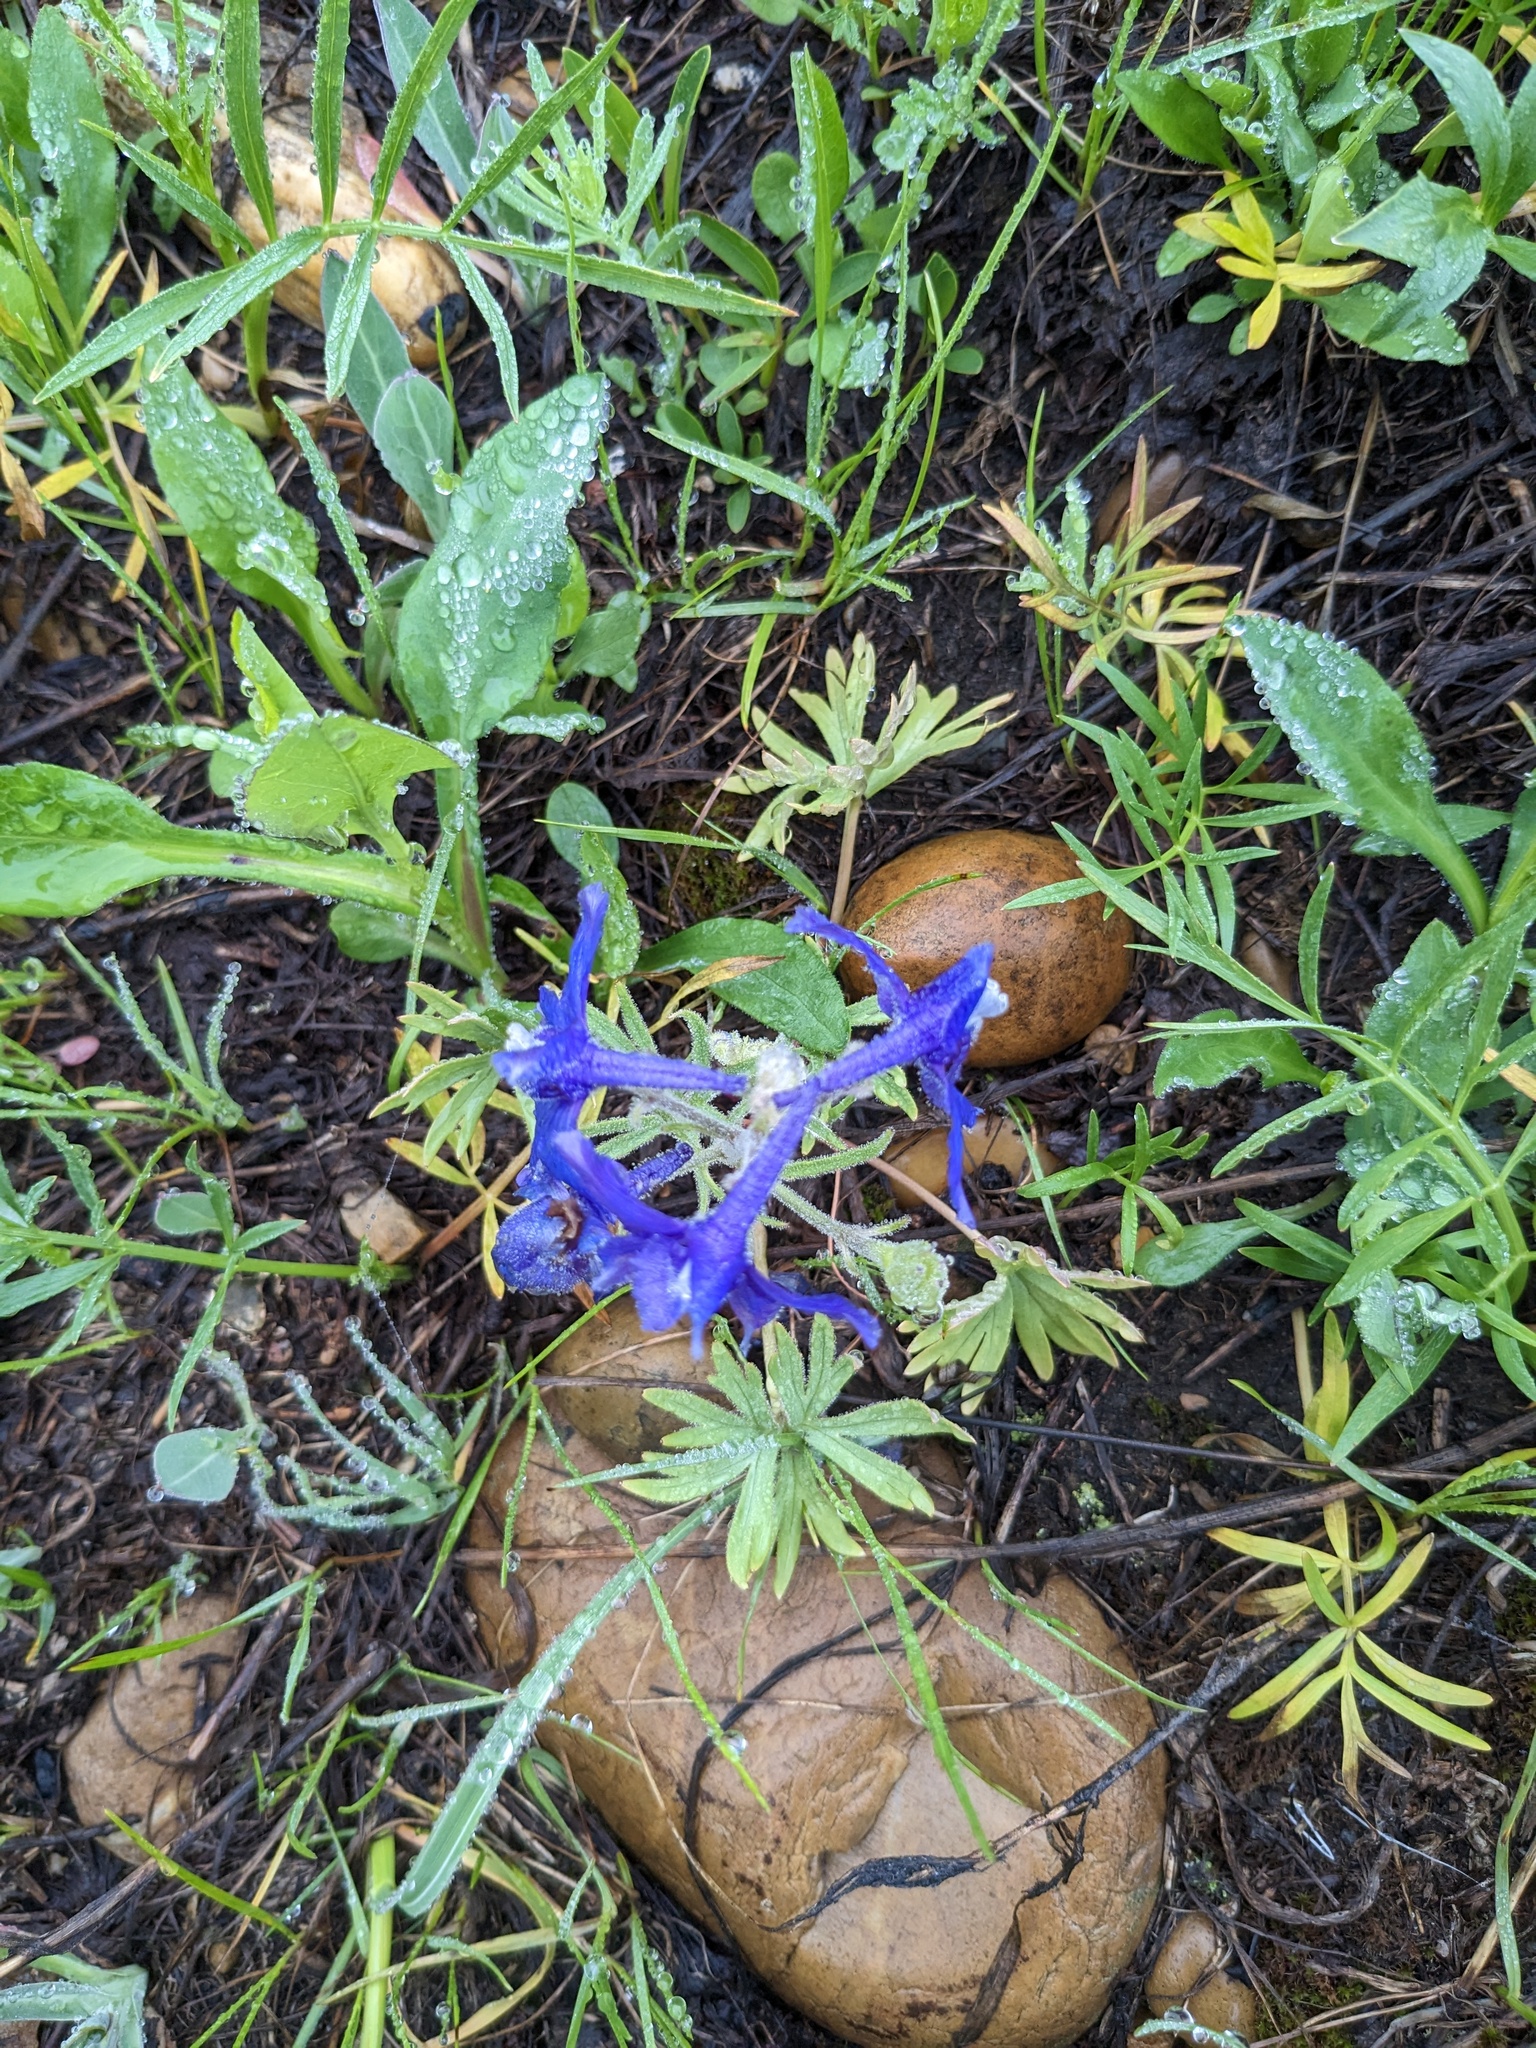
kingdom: Plantae
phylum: Tracheophyta
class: Magnoliopsida
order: Ranunculales
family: Ranunculaceae
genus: Delphinium
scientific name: Delphinium bicolor
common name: Low larkspur
